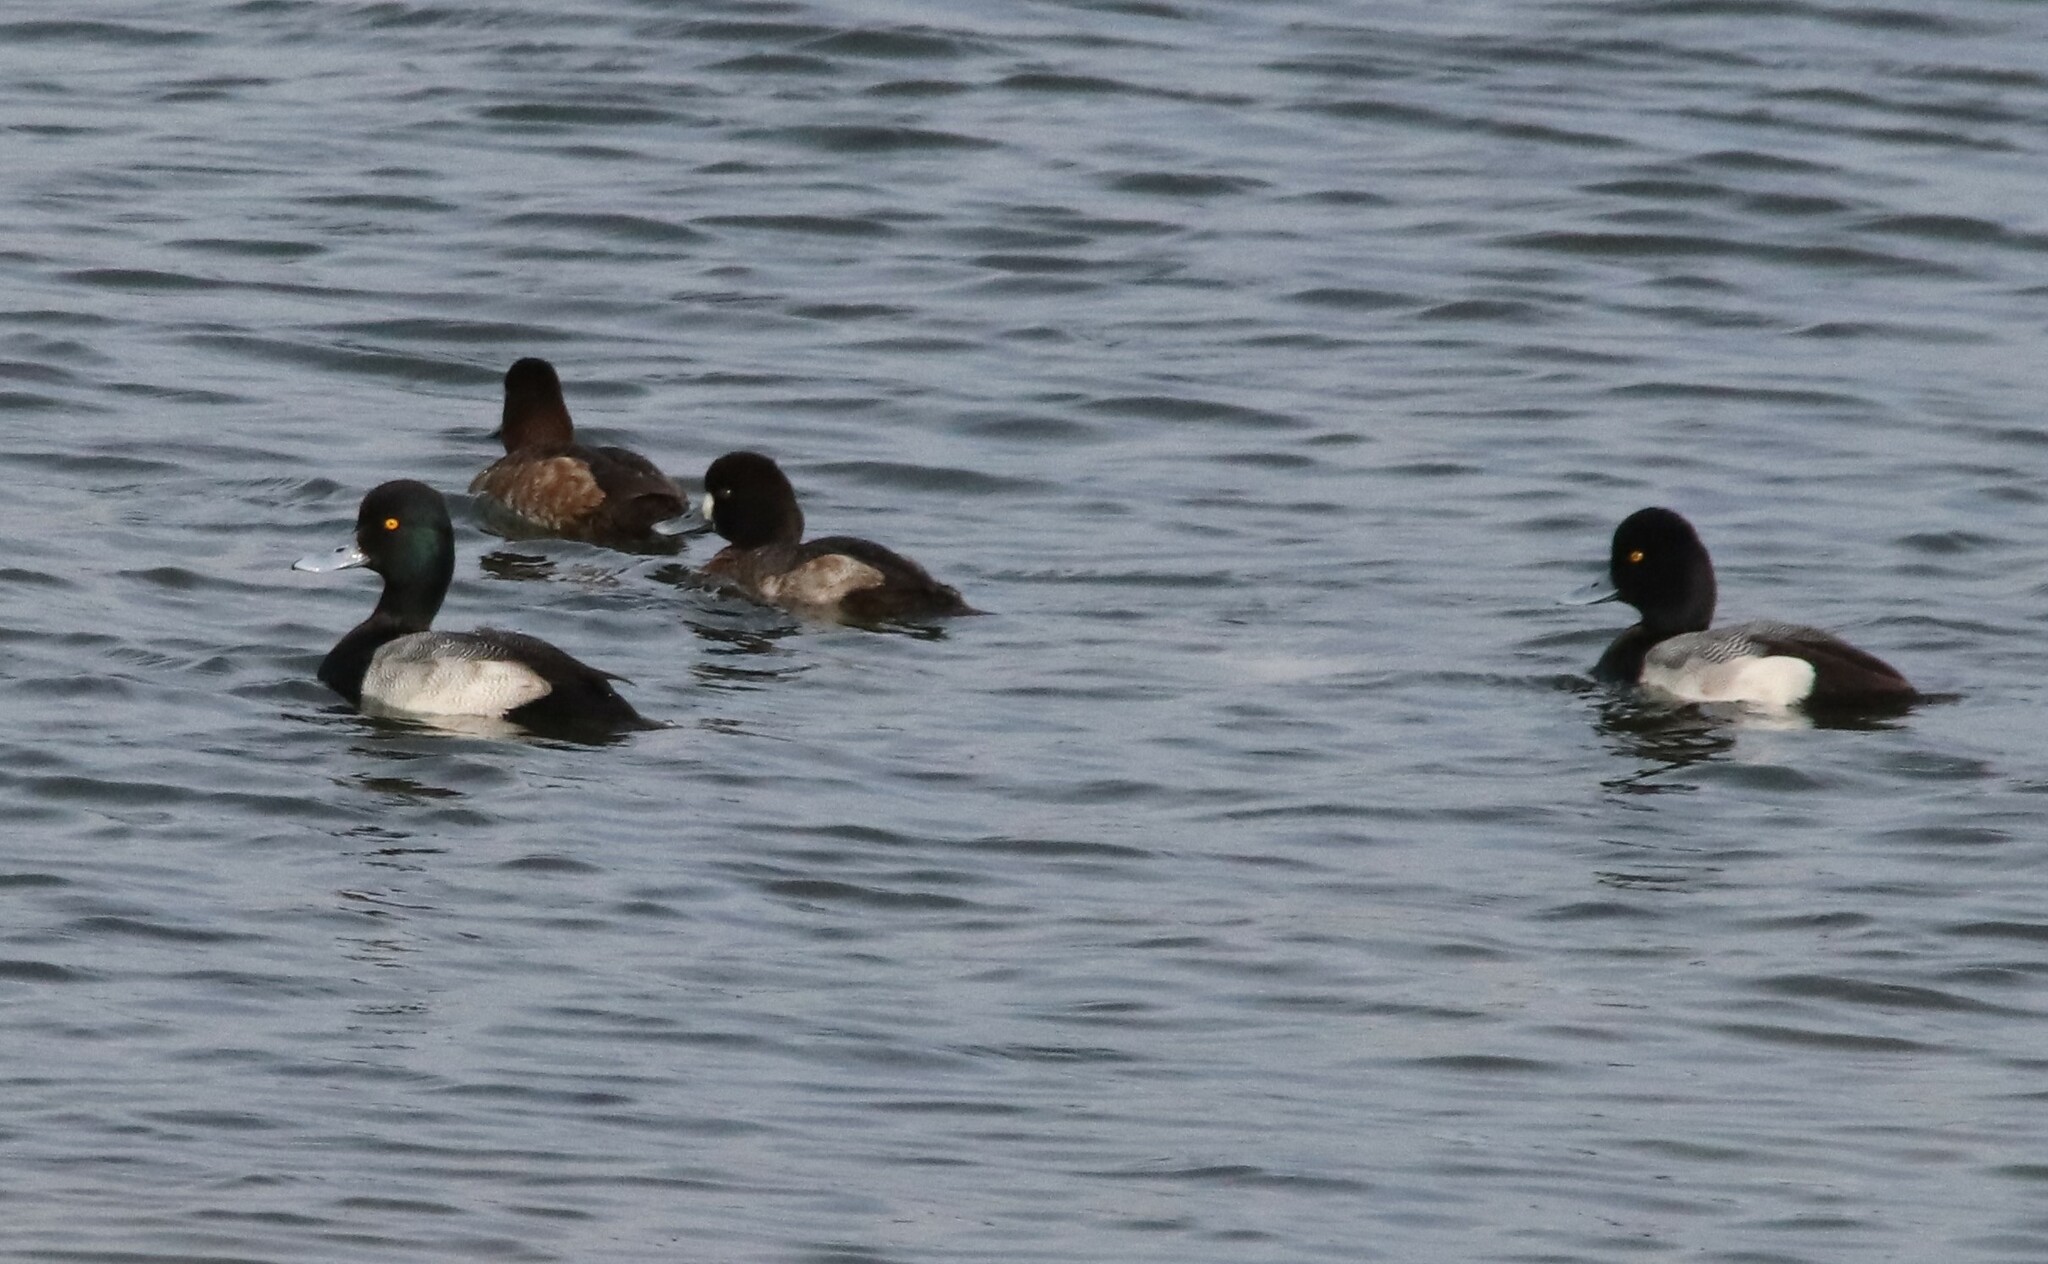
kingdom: Animalia
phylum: Chordata
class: Aves
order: Anseriformes
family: Anatidae
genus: Aythya
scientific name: Aythya affinis
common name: Lesser scaup
